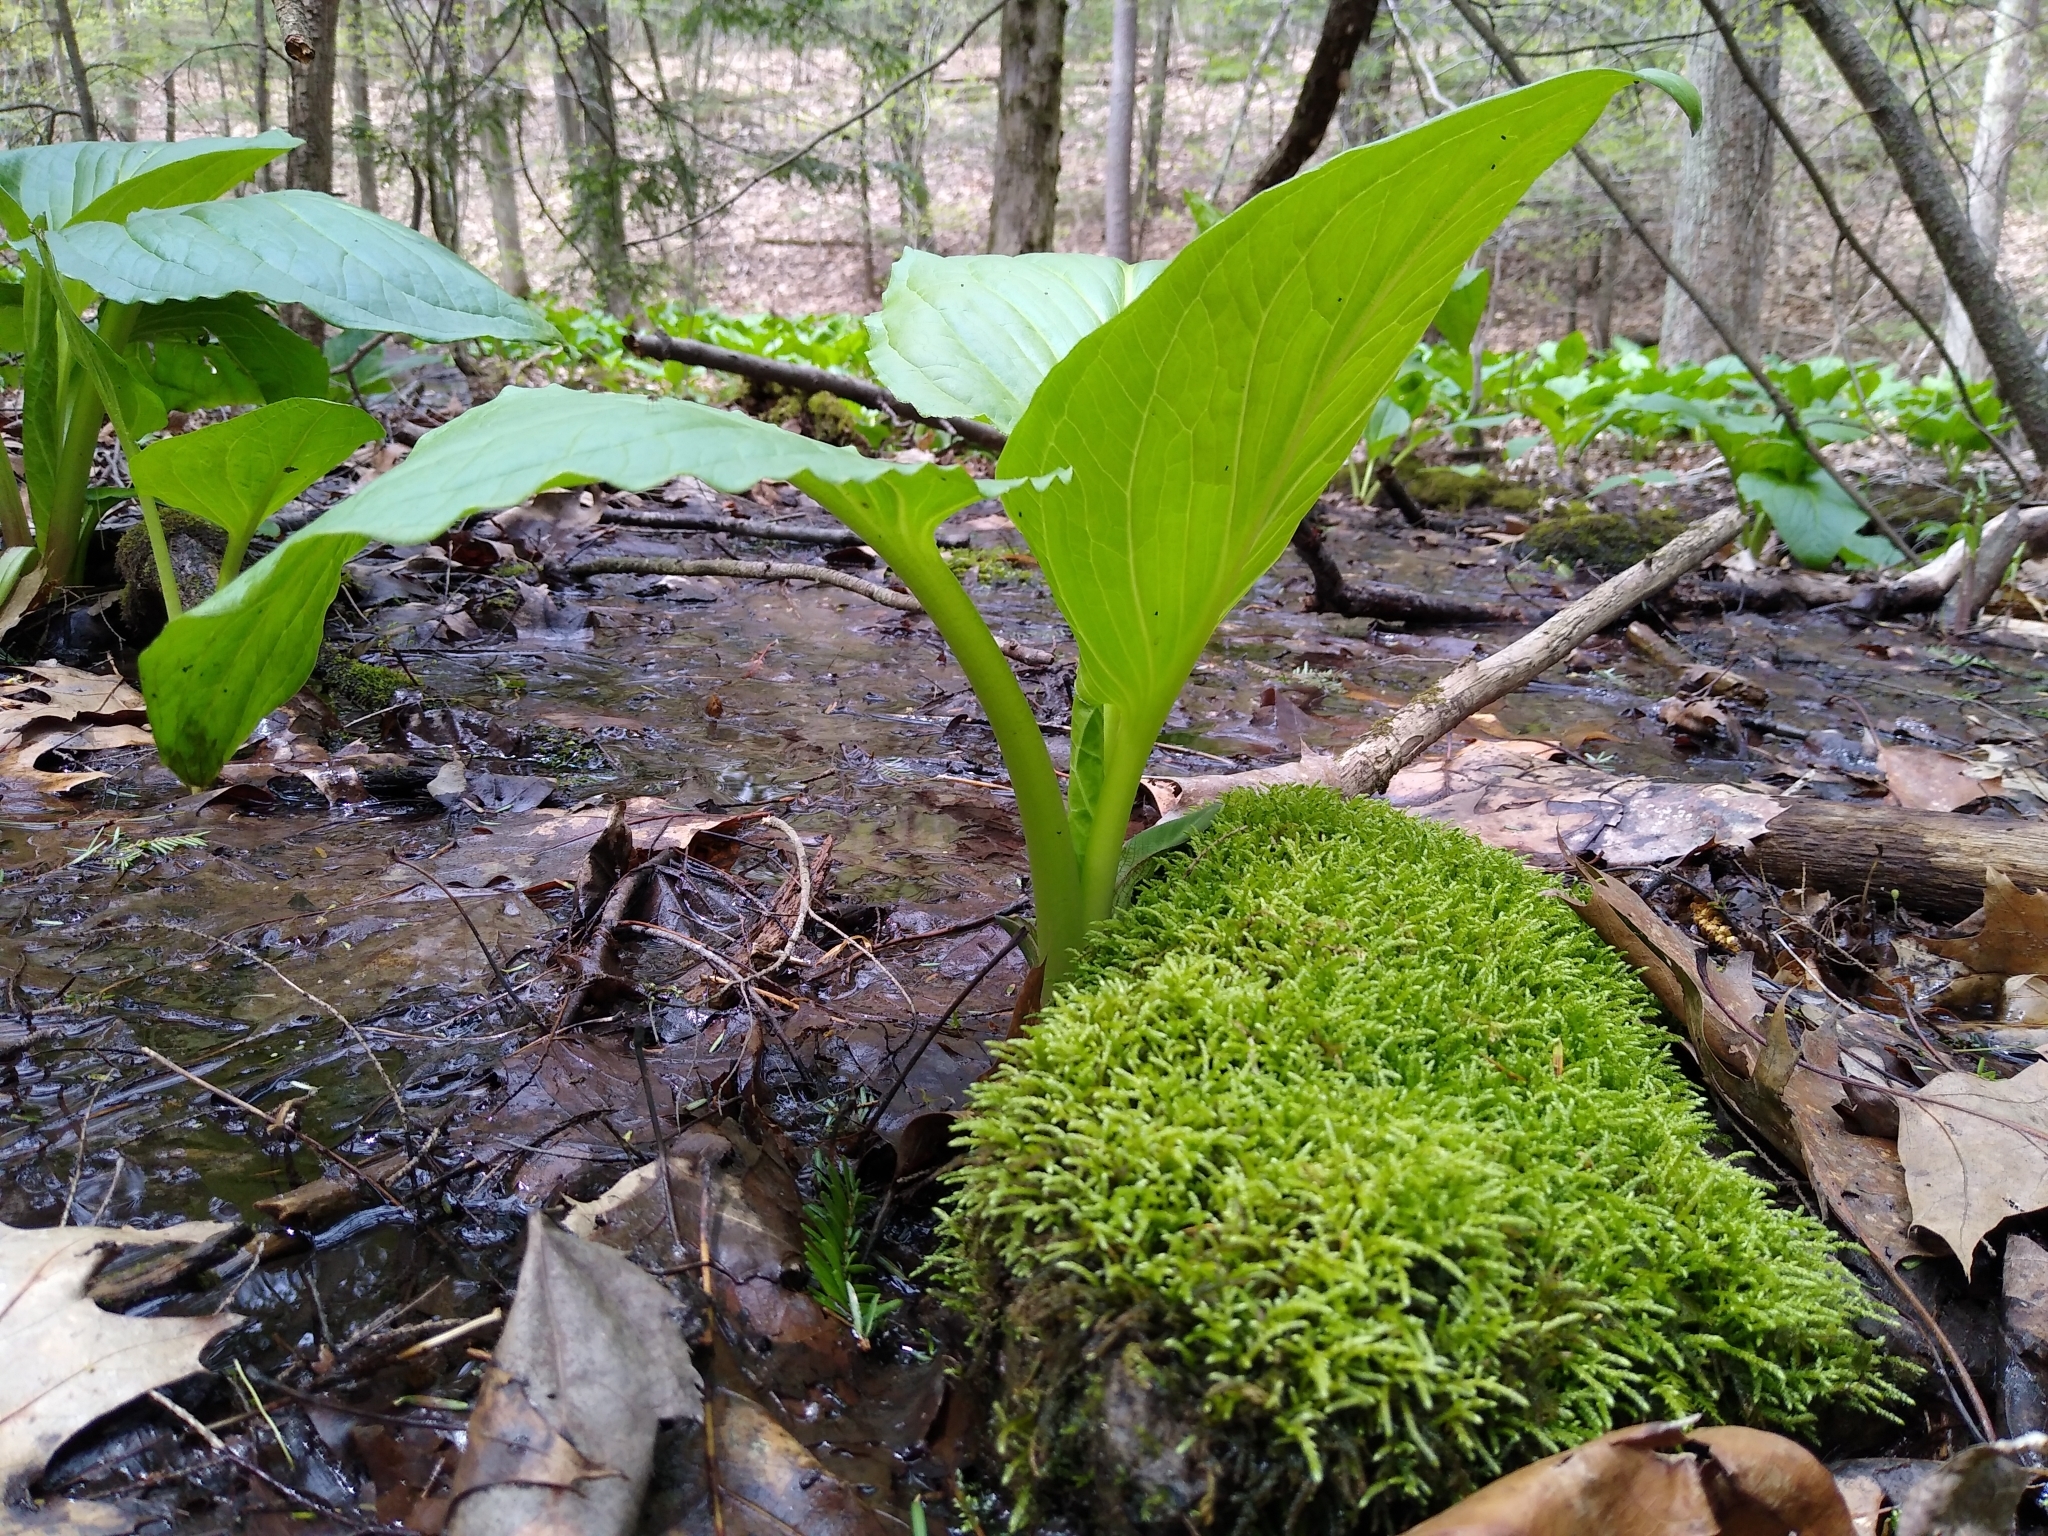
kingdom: Plantae
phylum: Tracheophyta
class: Liliopsida
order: Alismatales
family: Araceae
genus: Symplocarpus
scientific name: Symplocarpus foetidus
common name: Eastern skunk cabbage
